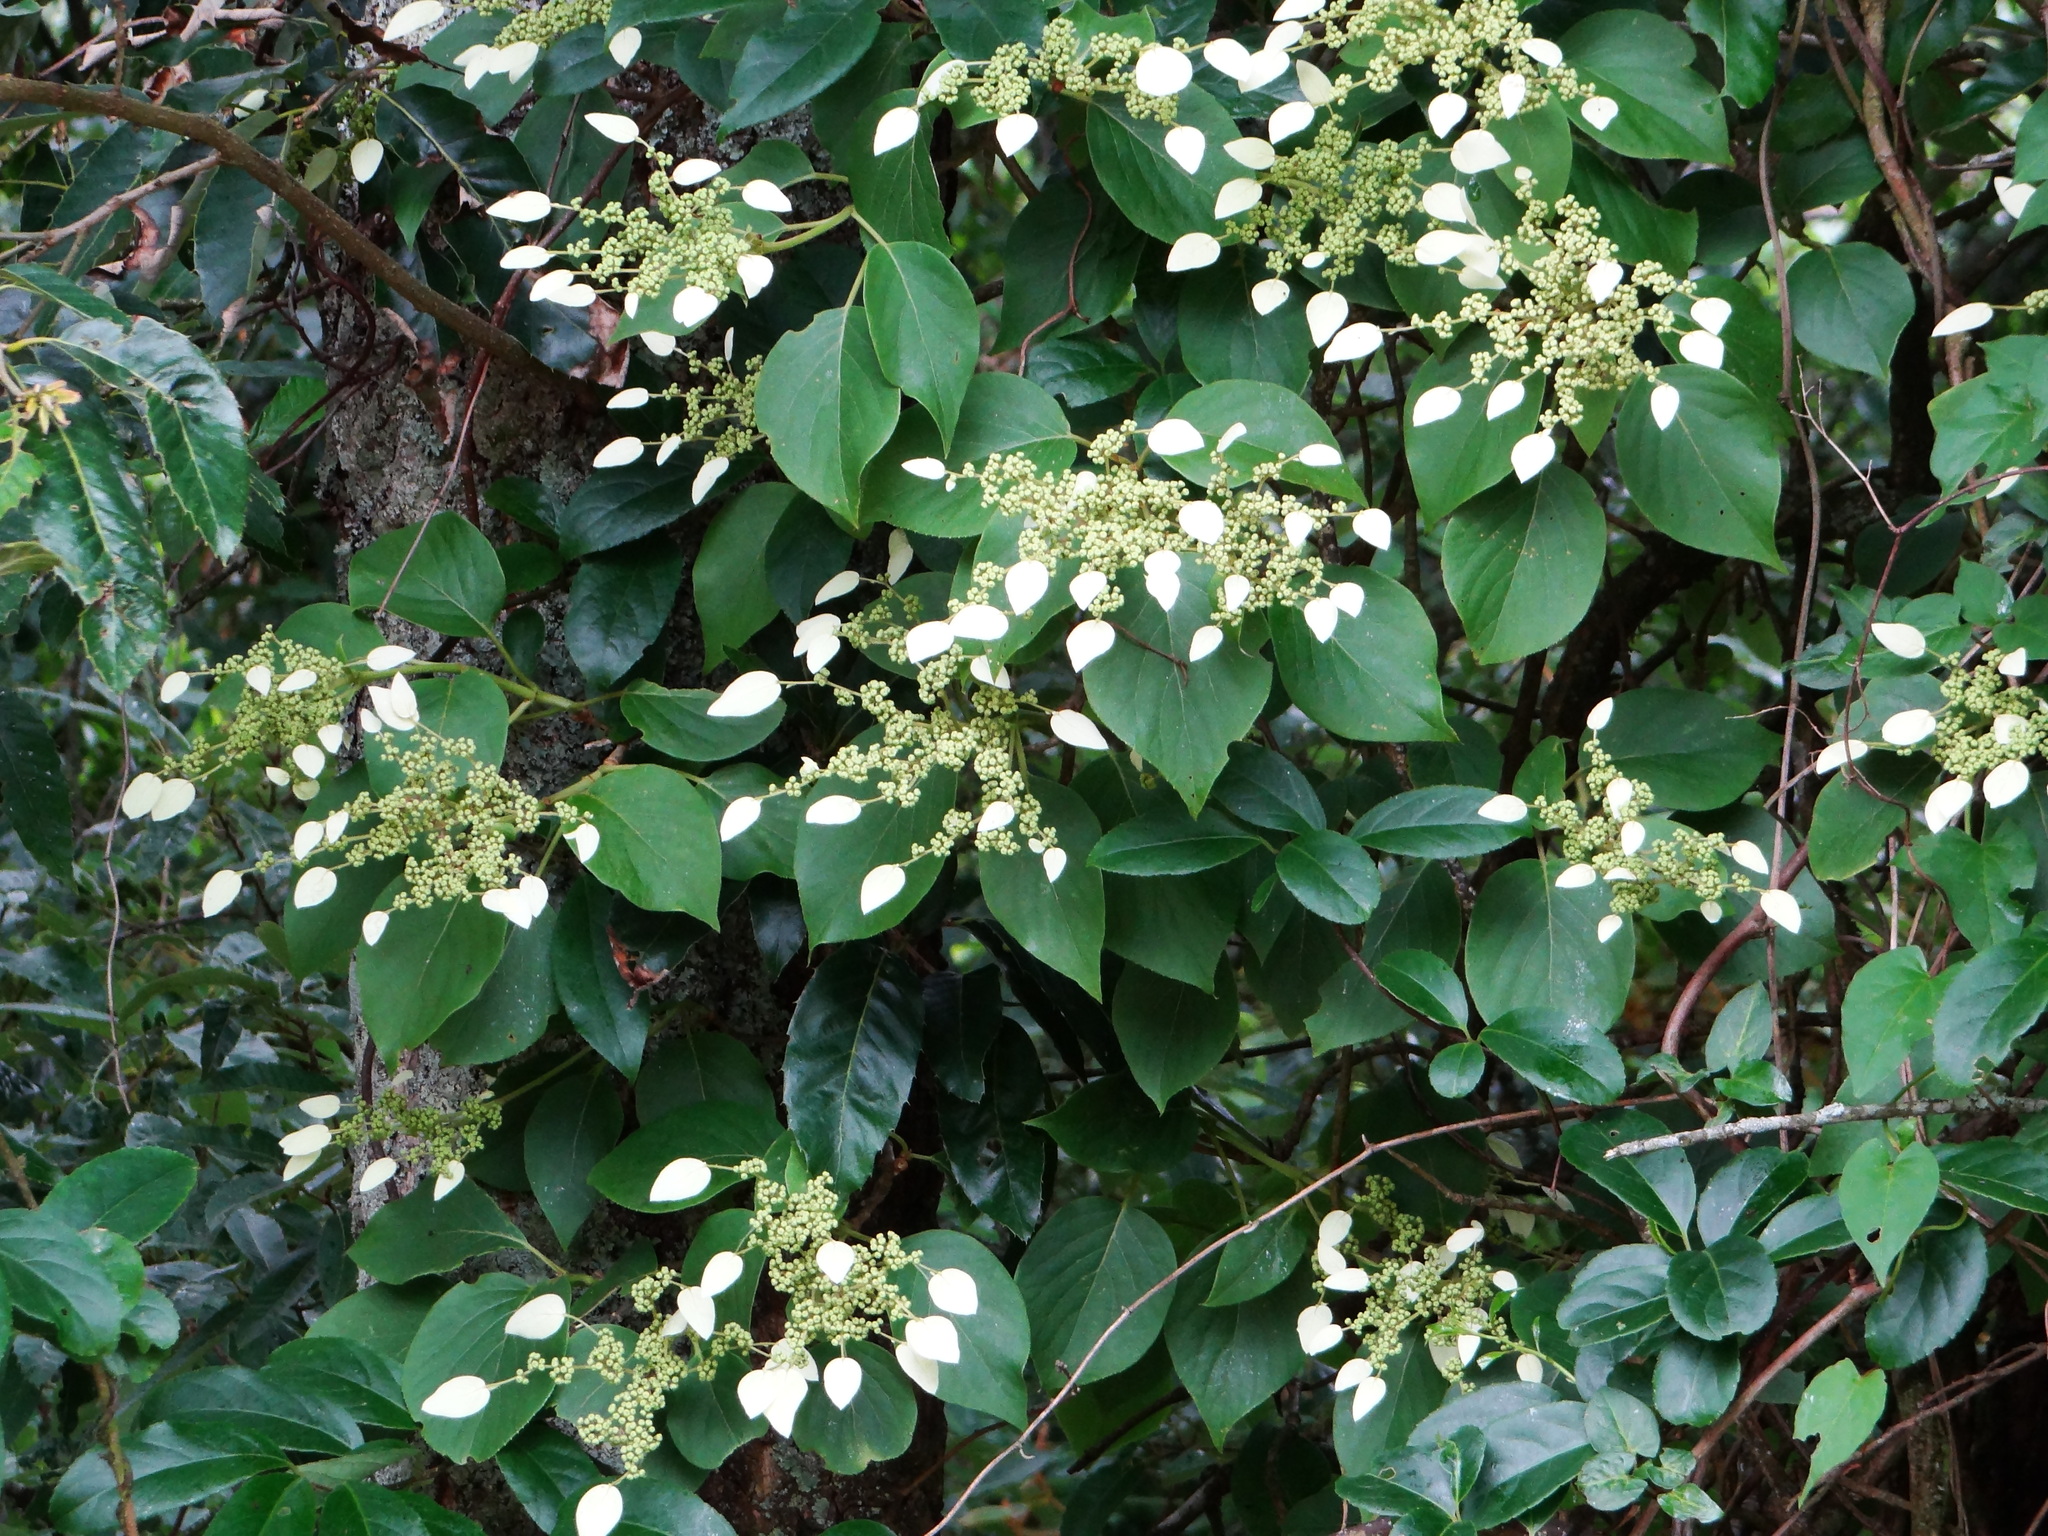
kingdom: Plantae
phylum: Tracheophyta
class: Magnoliopsida
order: Cornales
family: Hydrangeaceae
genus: Hydrangea
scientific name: Hydrangea fauriei
